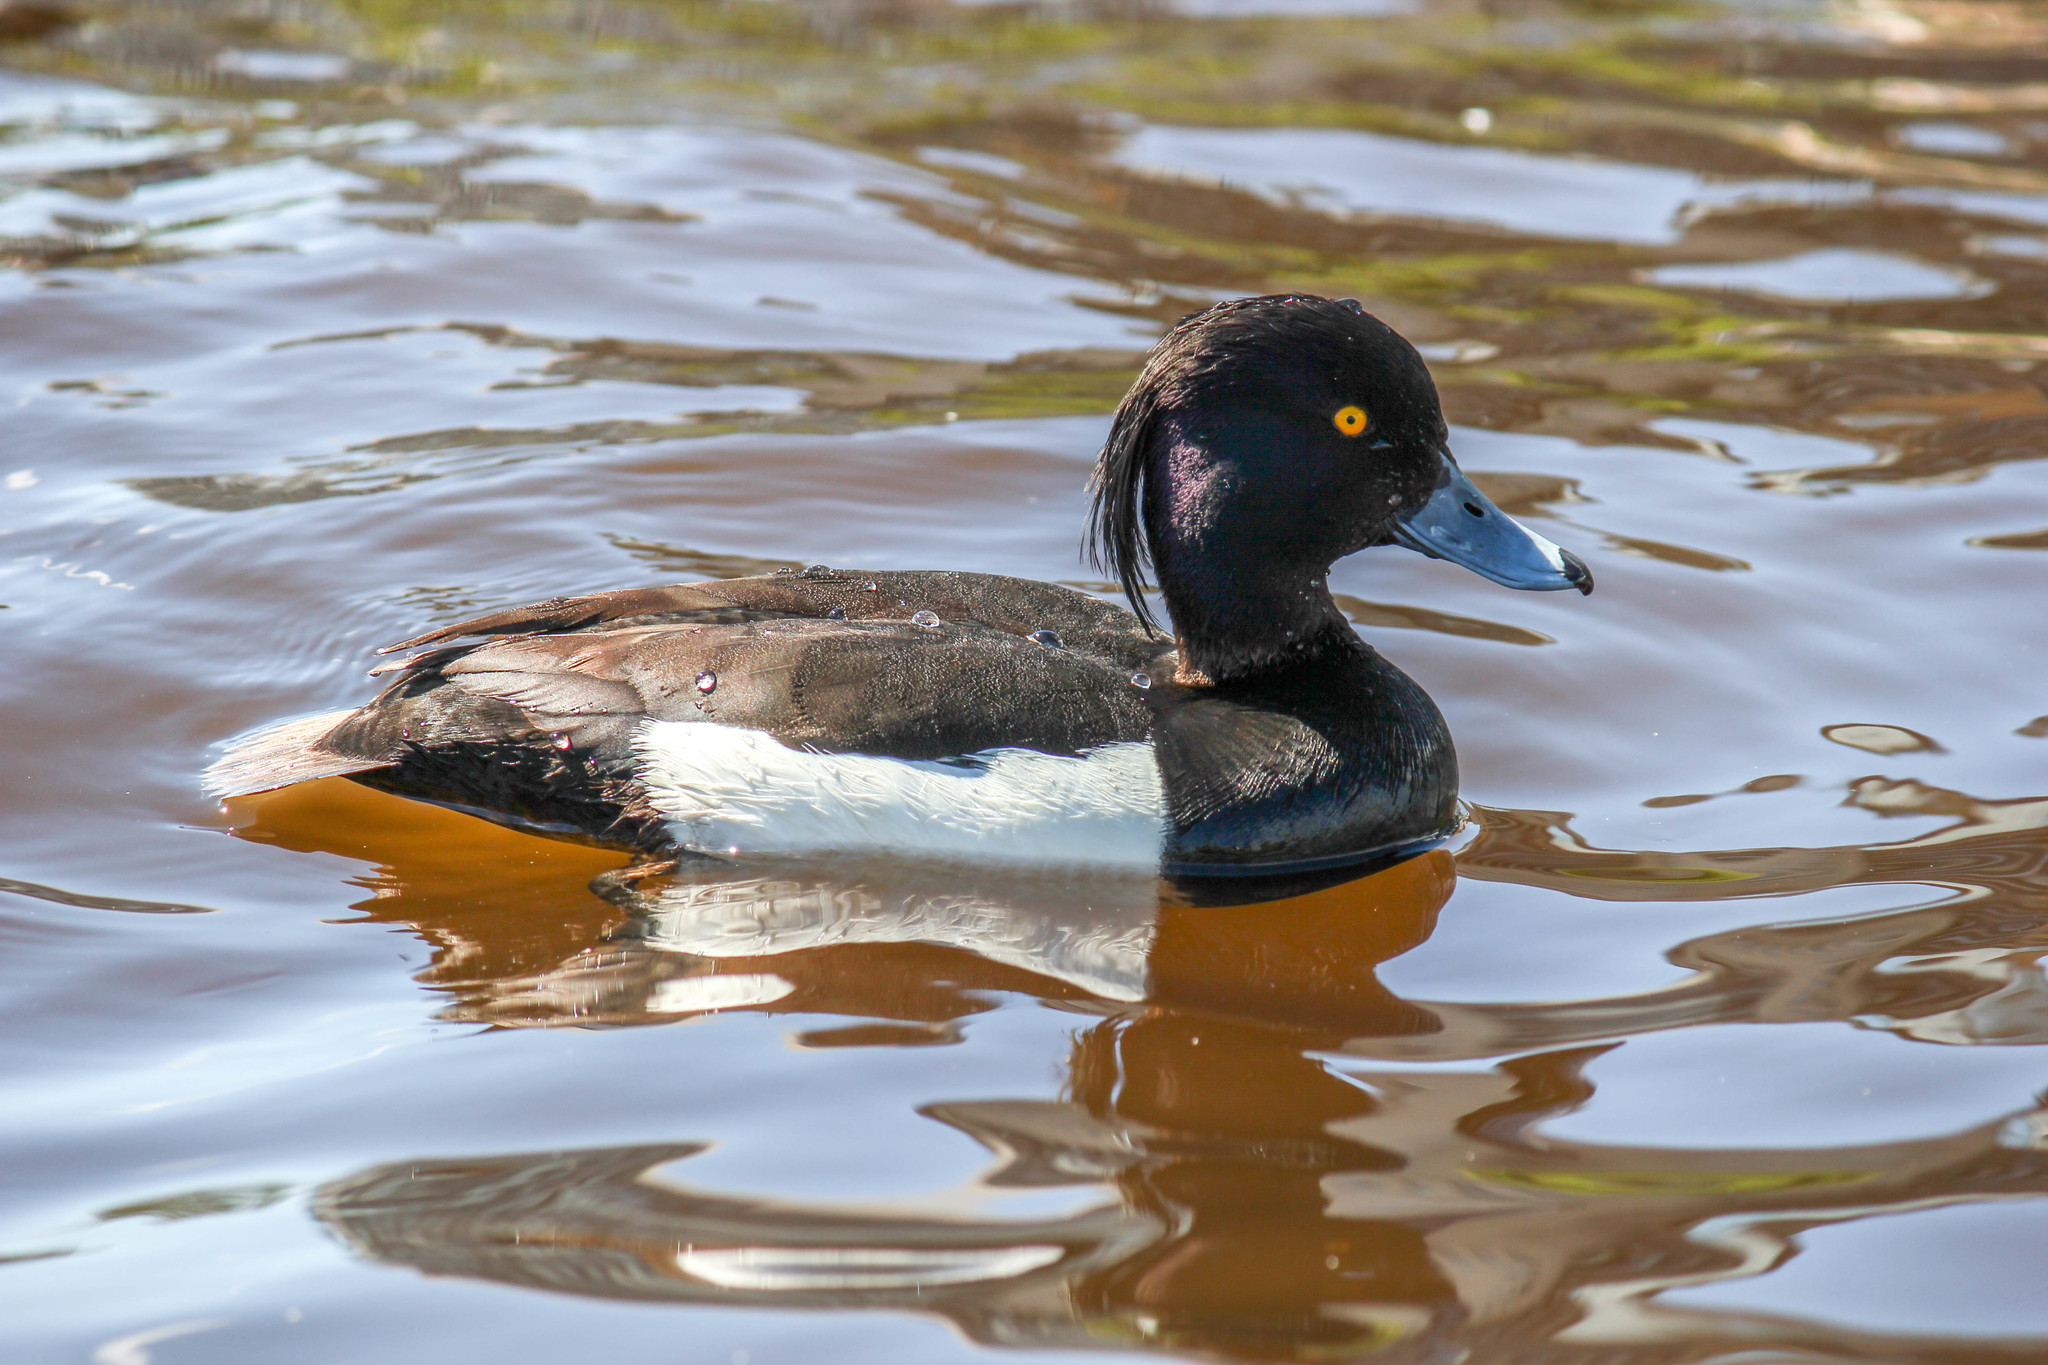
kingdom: Animalia
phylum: Chordata
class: Aves
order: Anseriformes
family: Anatidae
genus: Aythya
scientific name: Aythya fuligula
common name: Tufted duck
